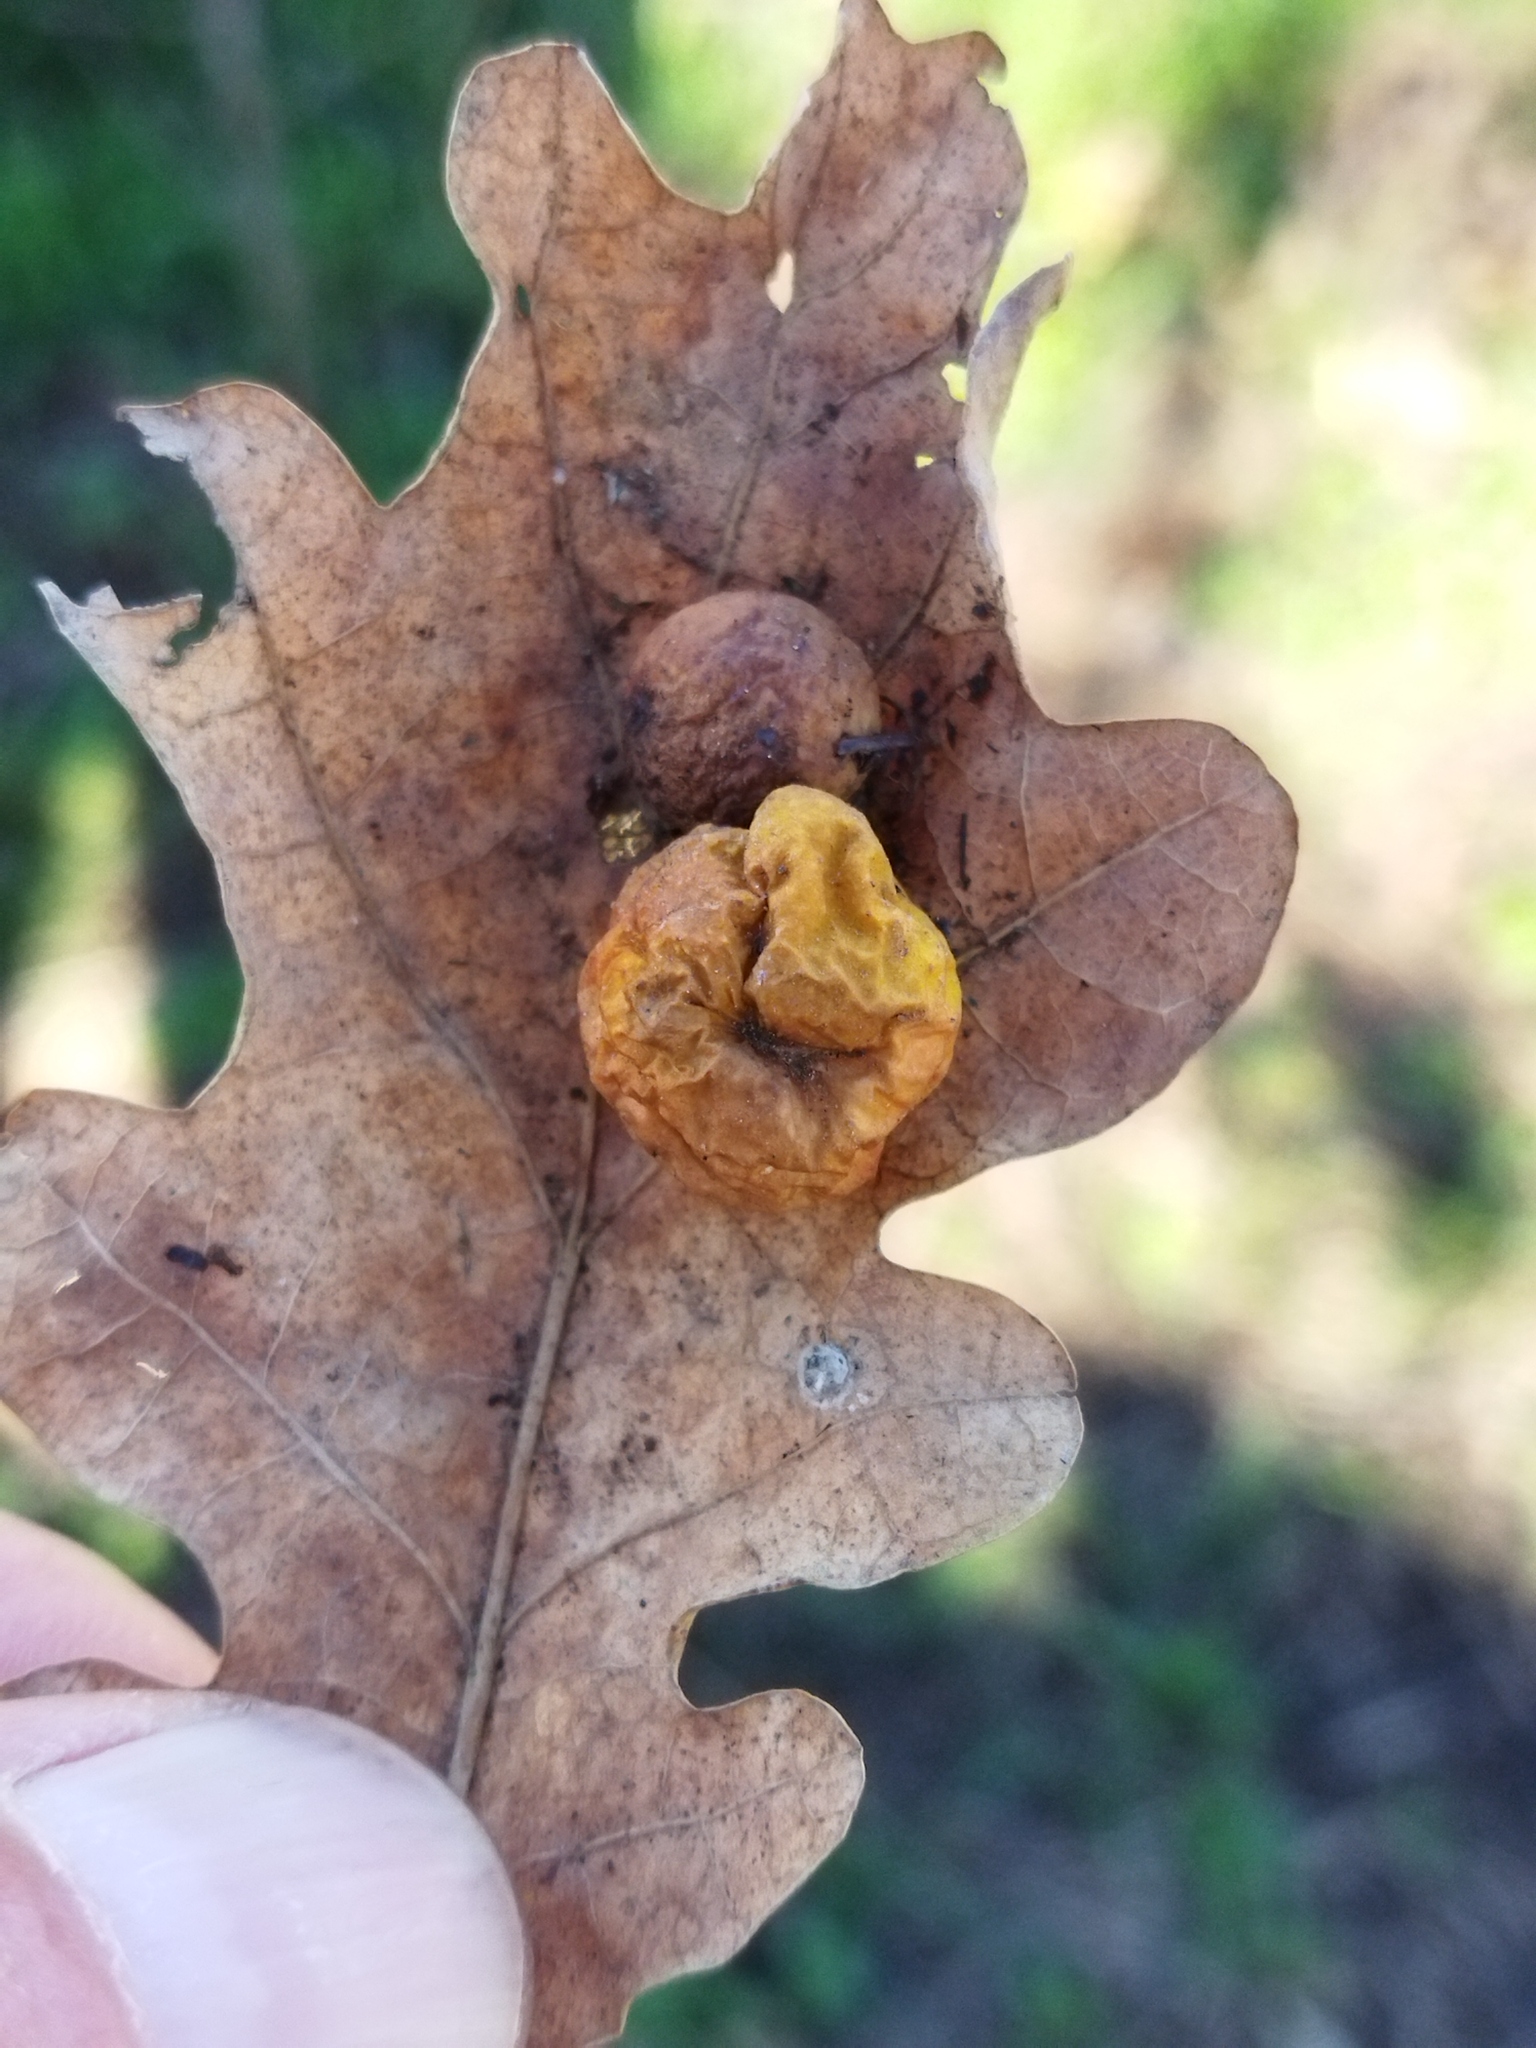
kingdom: Animalia
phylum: Arthropoda
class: Insecta
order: Hymenoptera
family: Cynipidae
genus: Cynips
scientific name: Cynips quercusfolii
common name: Cherry gall
